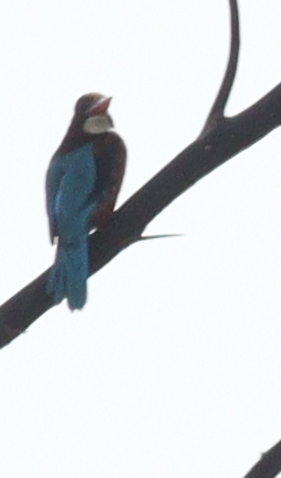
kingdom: Animalia
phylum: Chordata
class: Aves
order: Coraciiformes
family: Alcedinidae
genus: Halcyon
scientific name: Halcyon smyrnensis
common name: White-throated kingfisher
